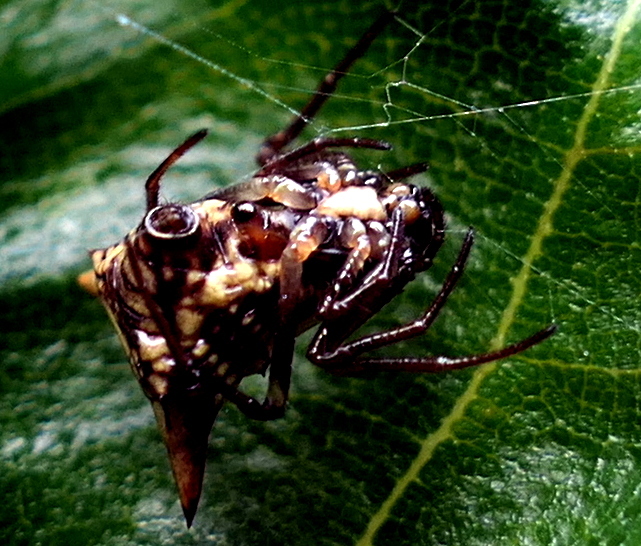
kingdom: Animalia
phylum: Arthropoda
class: Arachnida
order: Araneae
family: Araneidae
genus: Micrathena
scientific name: Micrathena evansi
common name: Orb weavers
